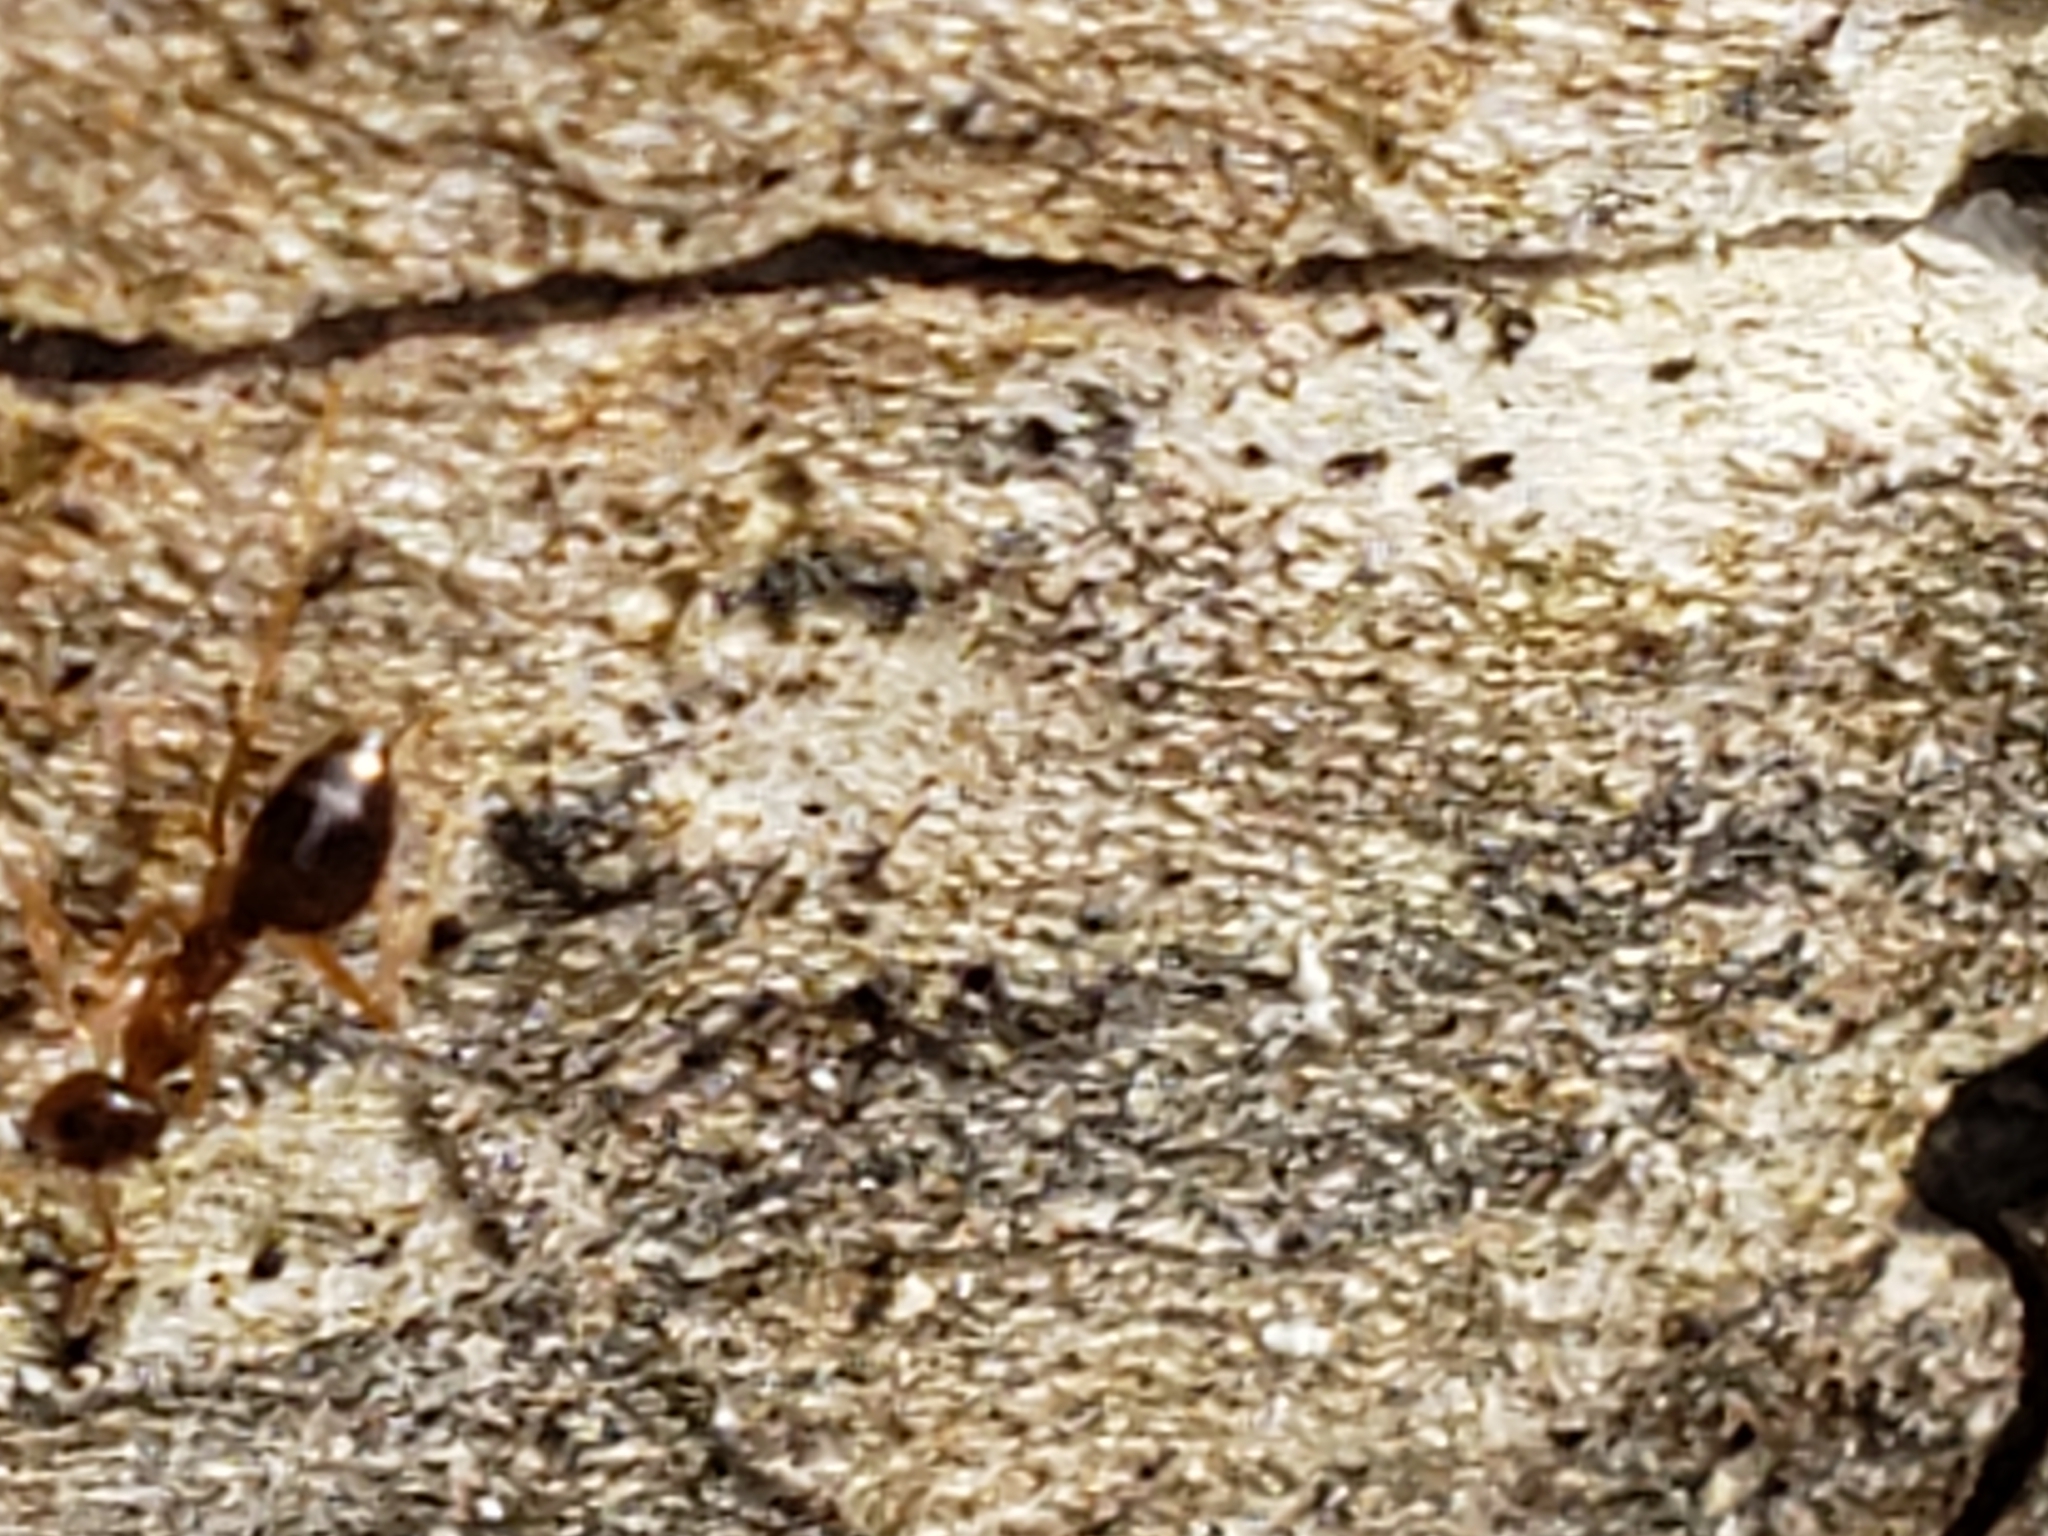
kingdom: Animalia
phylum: Arthropoda
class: Insecta
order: Hymenoptera
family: Formicidae
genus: Prenolepis
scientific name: Prenolepis imparis
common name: Small honey ant
